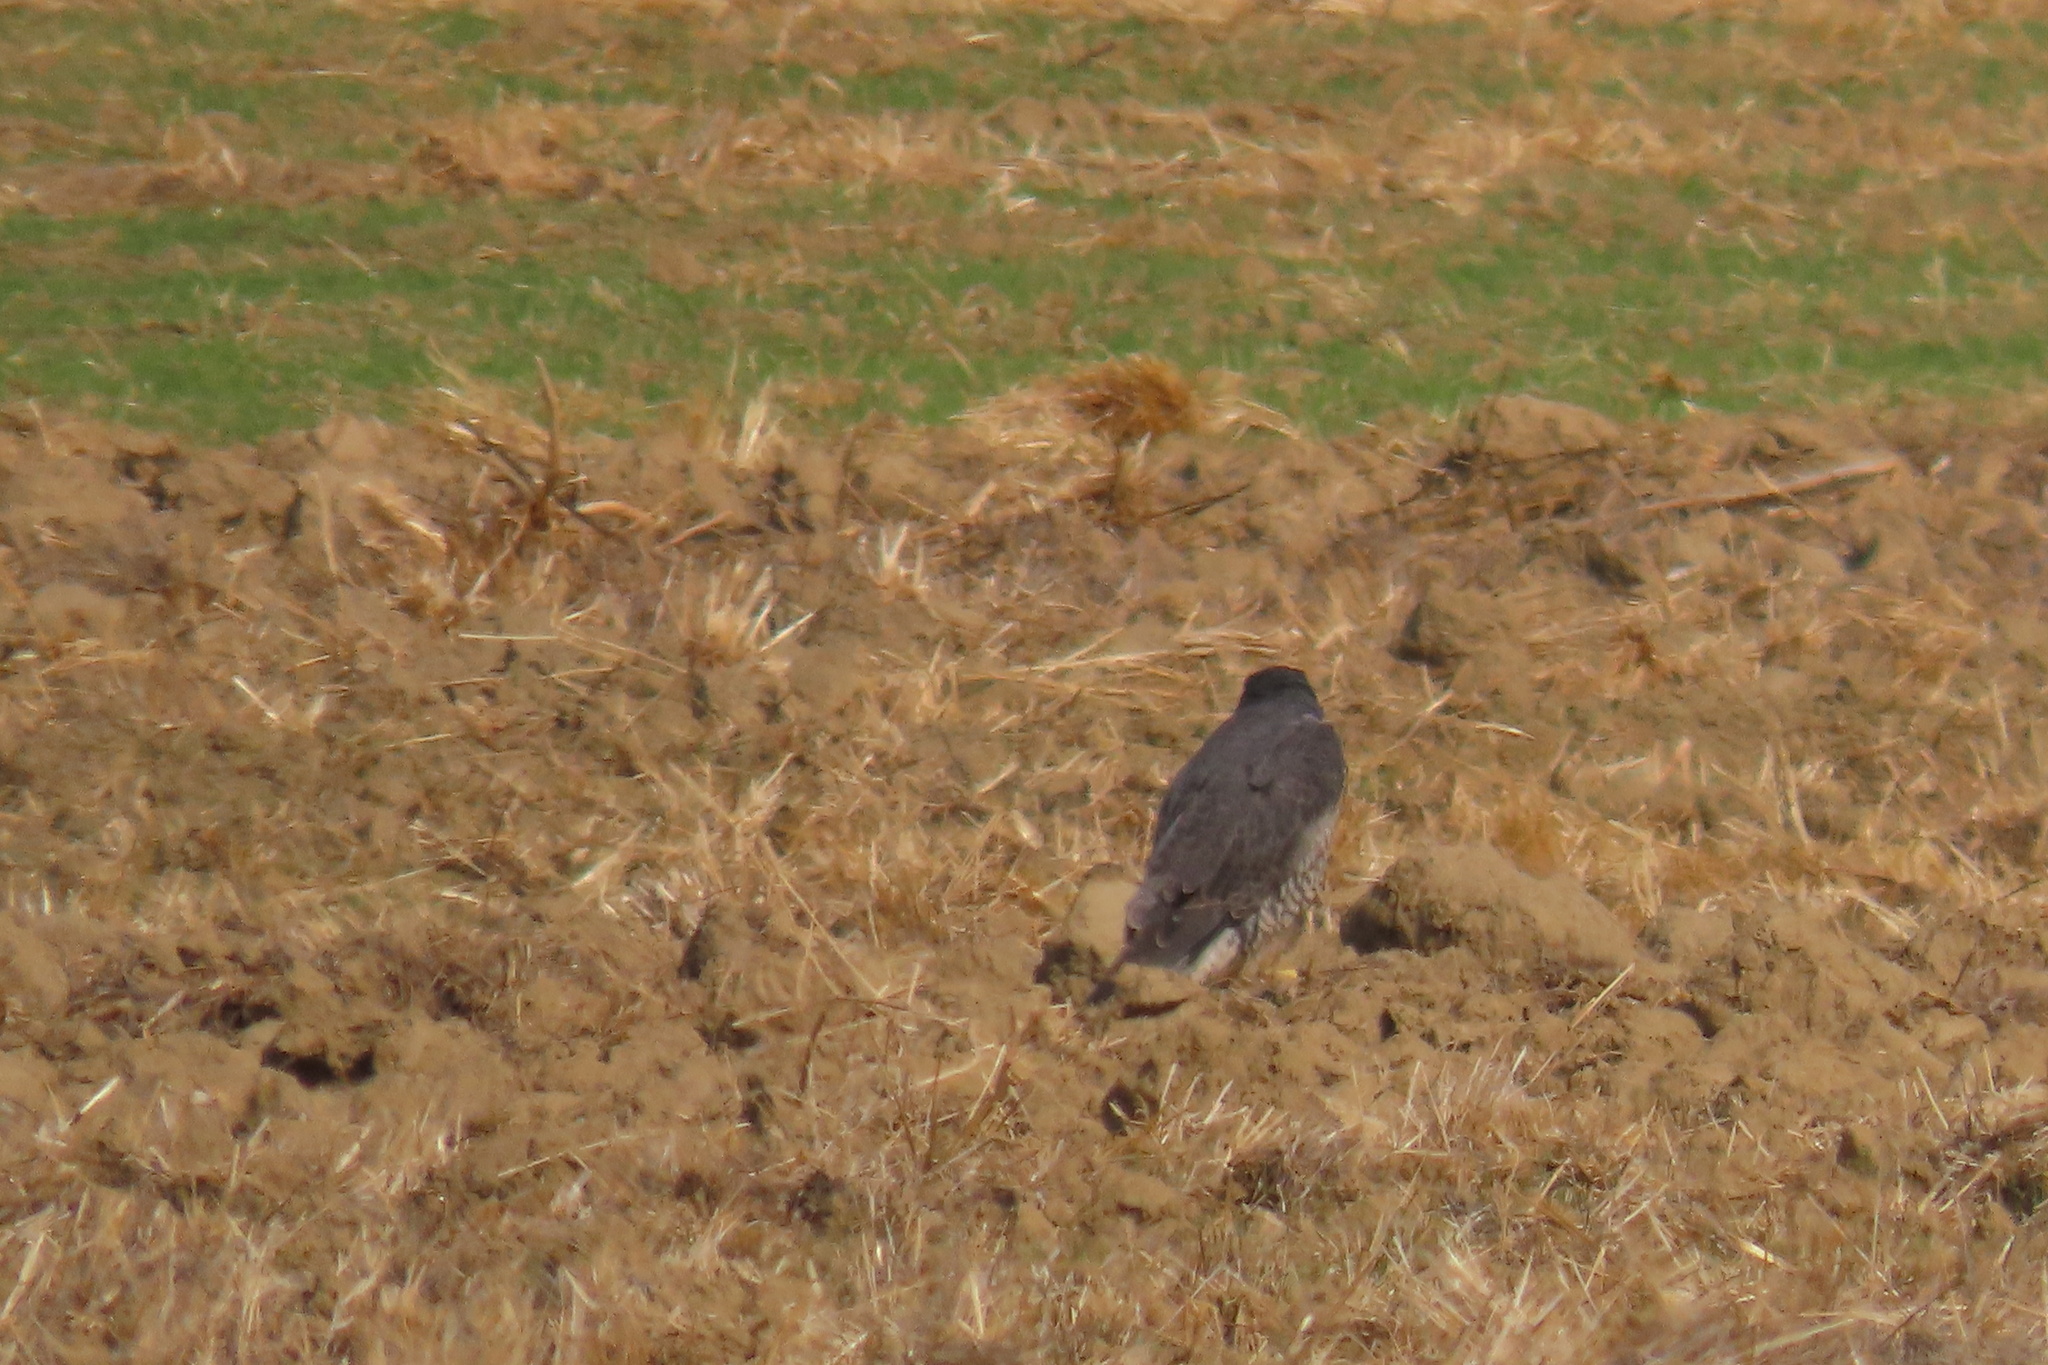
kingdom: Animalia
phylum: Chordata
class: Aves
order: Falconiformes
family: Falconidae
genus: Falco
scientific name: Falco peregrinus
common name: Peregrine falcon
